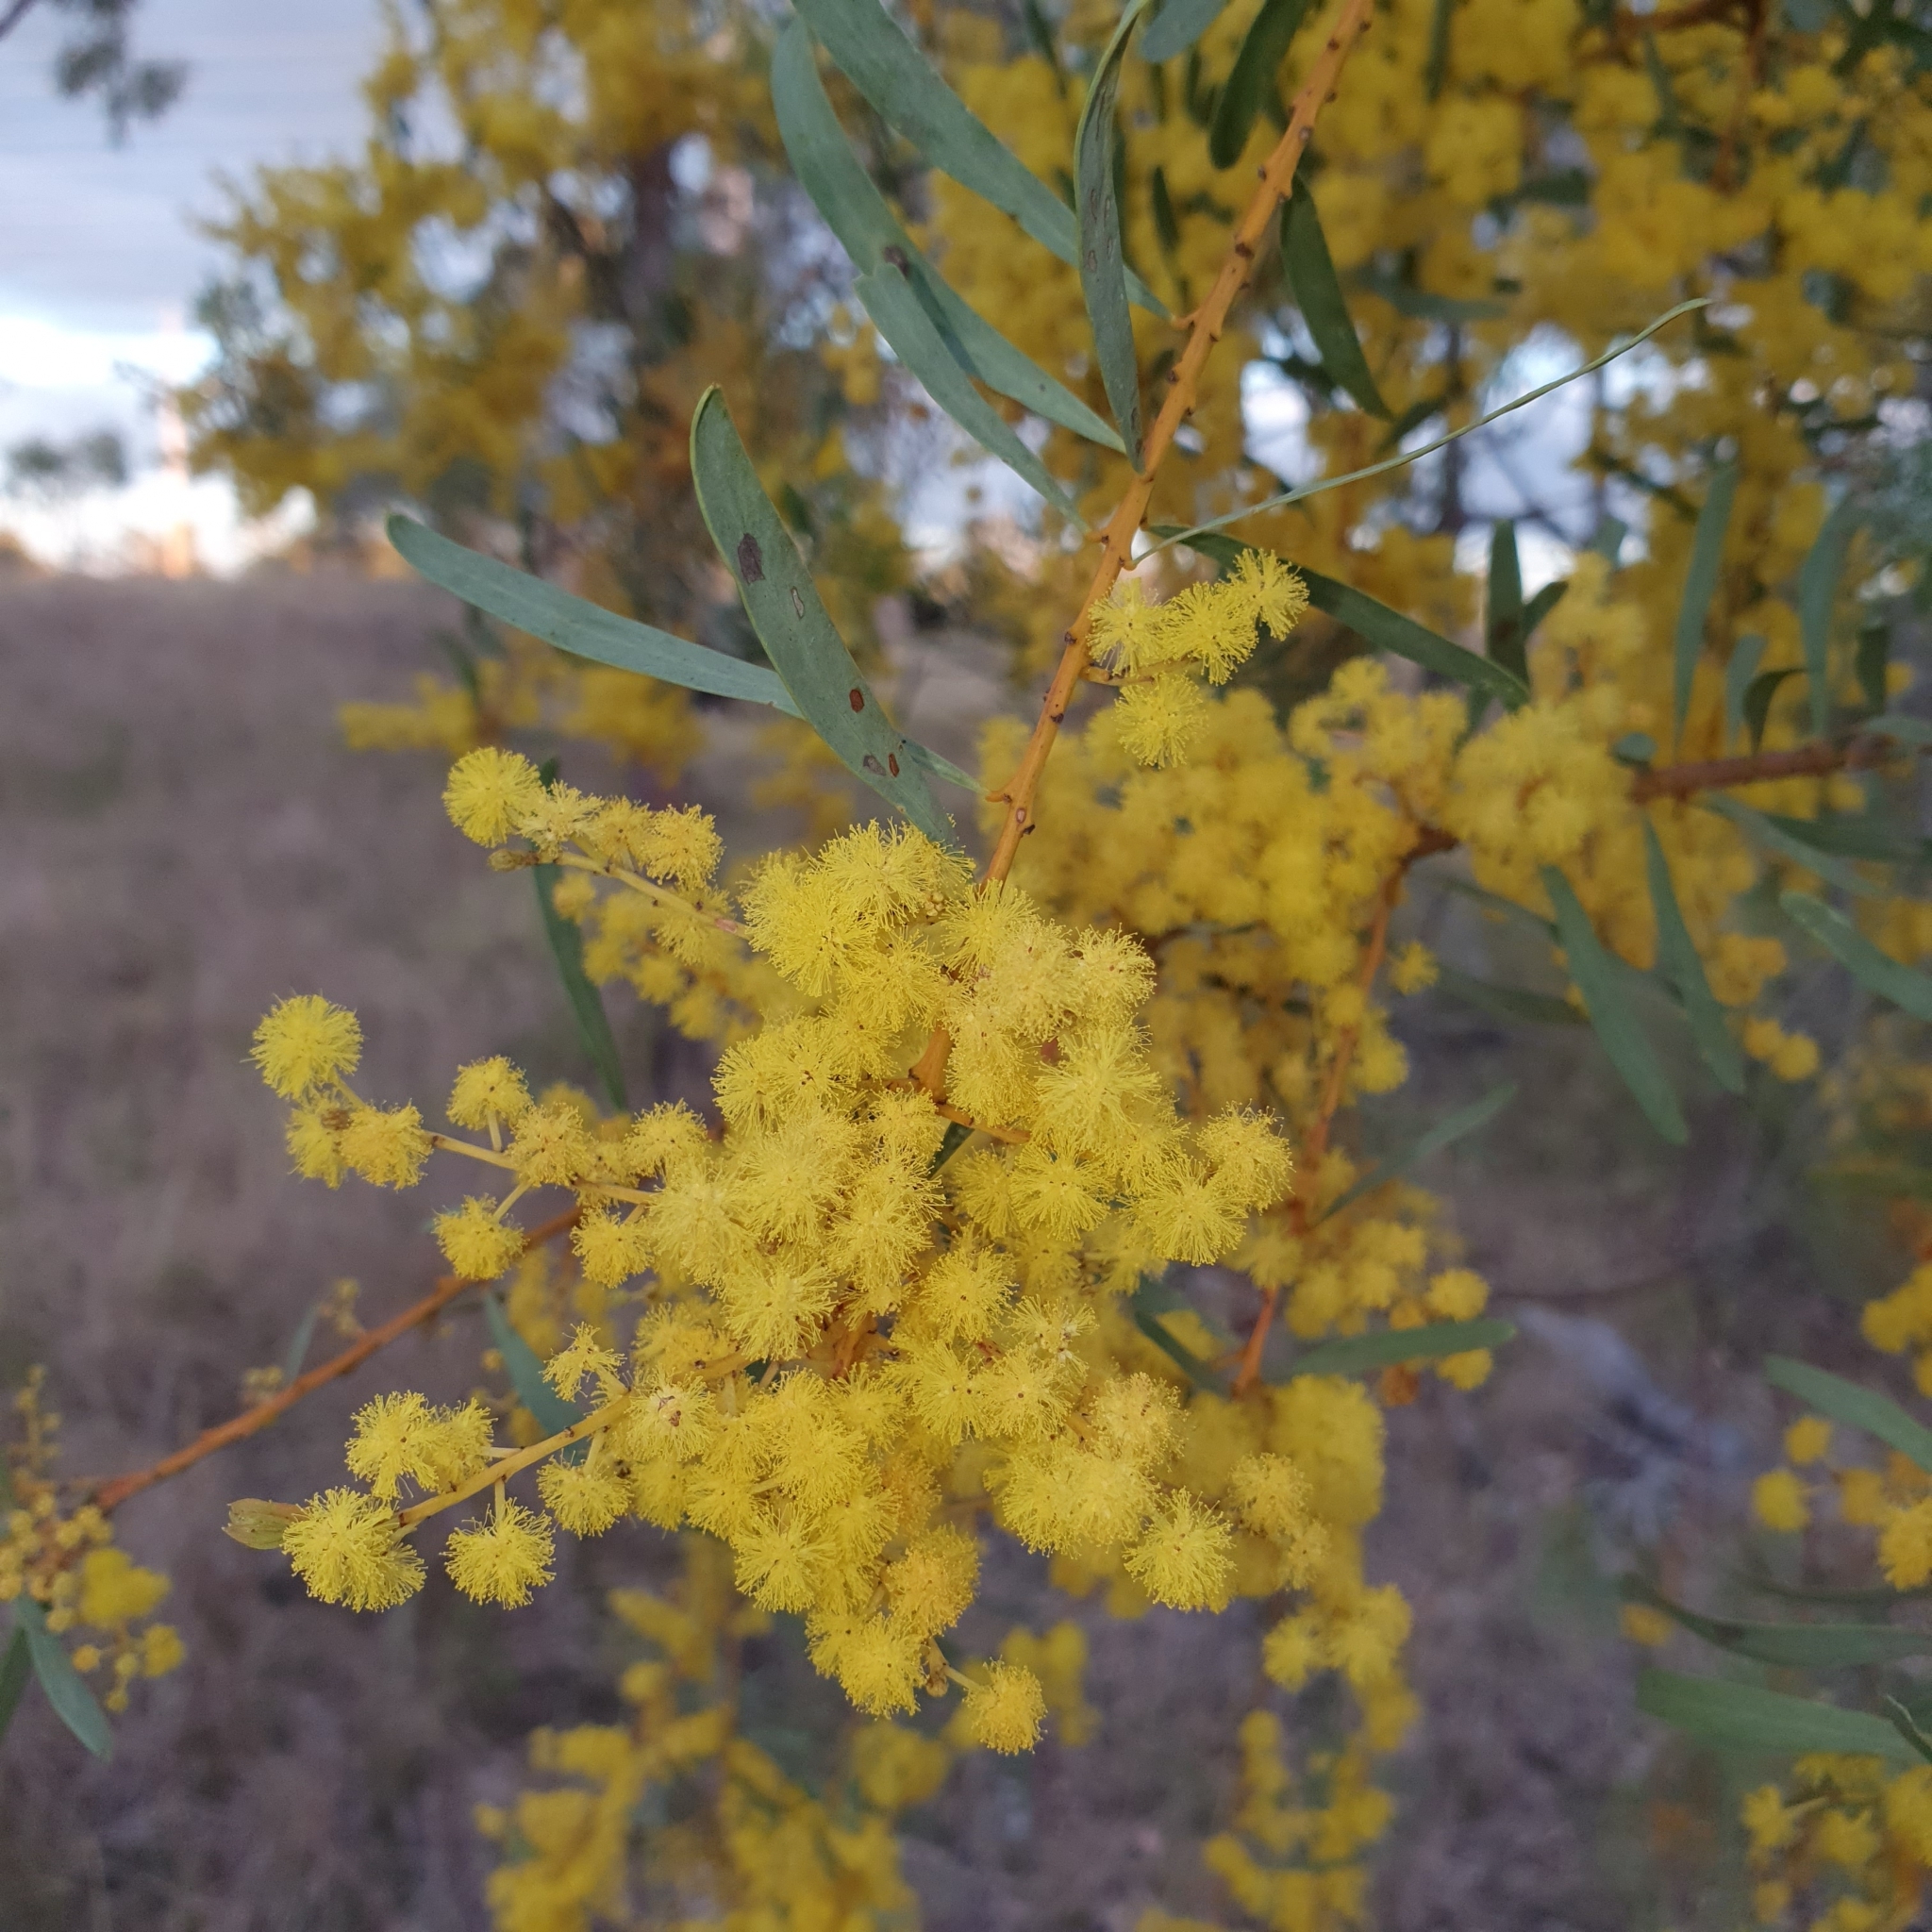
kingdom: Plantae
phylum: Tracheophyta
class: Magnoliopsida
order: Fabales
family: Fabaceae
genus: Acacia
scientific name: Acacia decora
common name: Showy wattle
